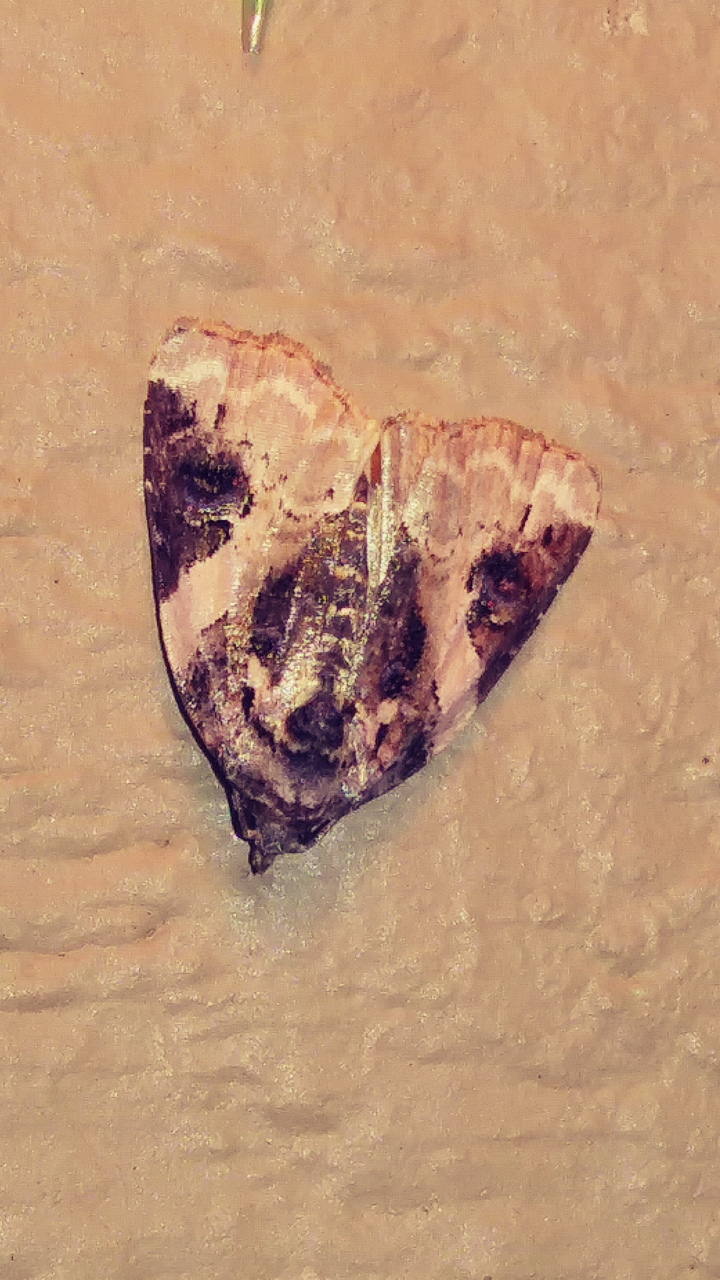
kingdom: Animalia
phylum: Arthropoda
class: Insecta
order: Lepidoptera
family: Noctuidae
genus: Pseudeustrotia
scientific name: Pseudeustrotia carneola
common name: Pink-barred lithacodia moth
